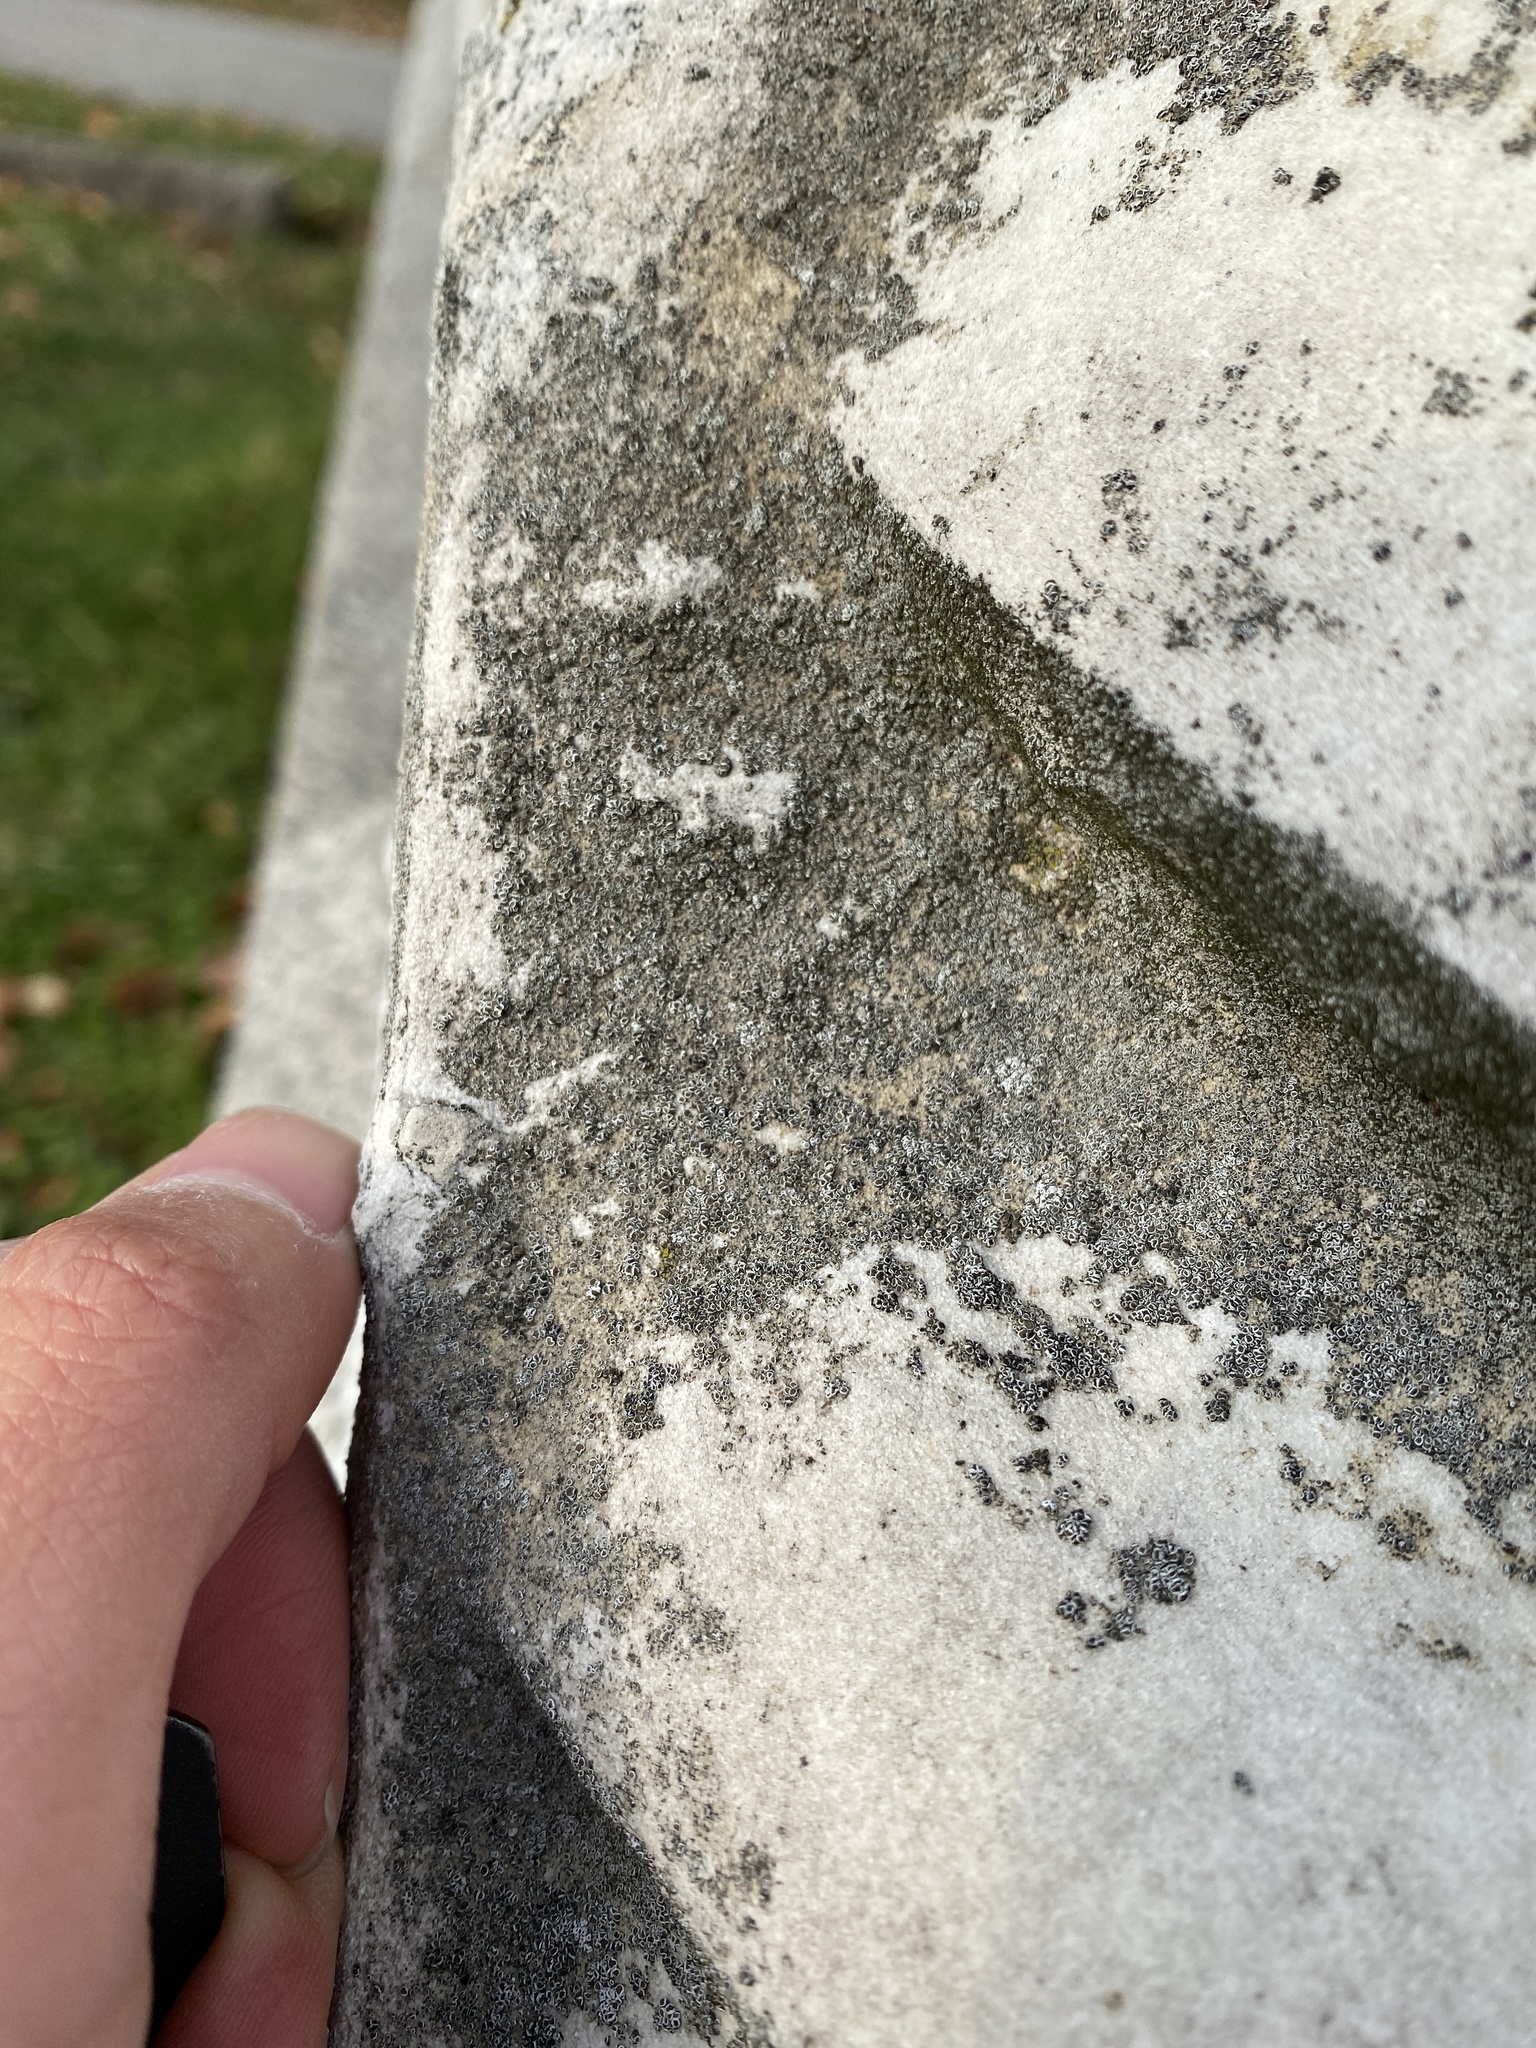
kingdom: Fungi
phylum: Ascomycota
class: Lecanoromycetes
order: Lecanorales
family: Lecanoraceae
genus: Polyozosia
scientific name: Polyozosia dispersa
